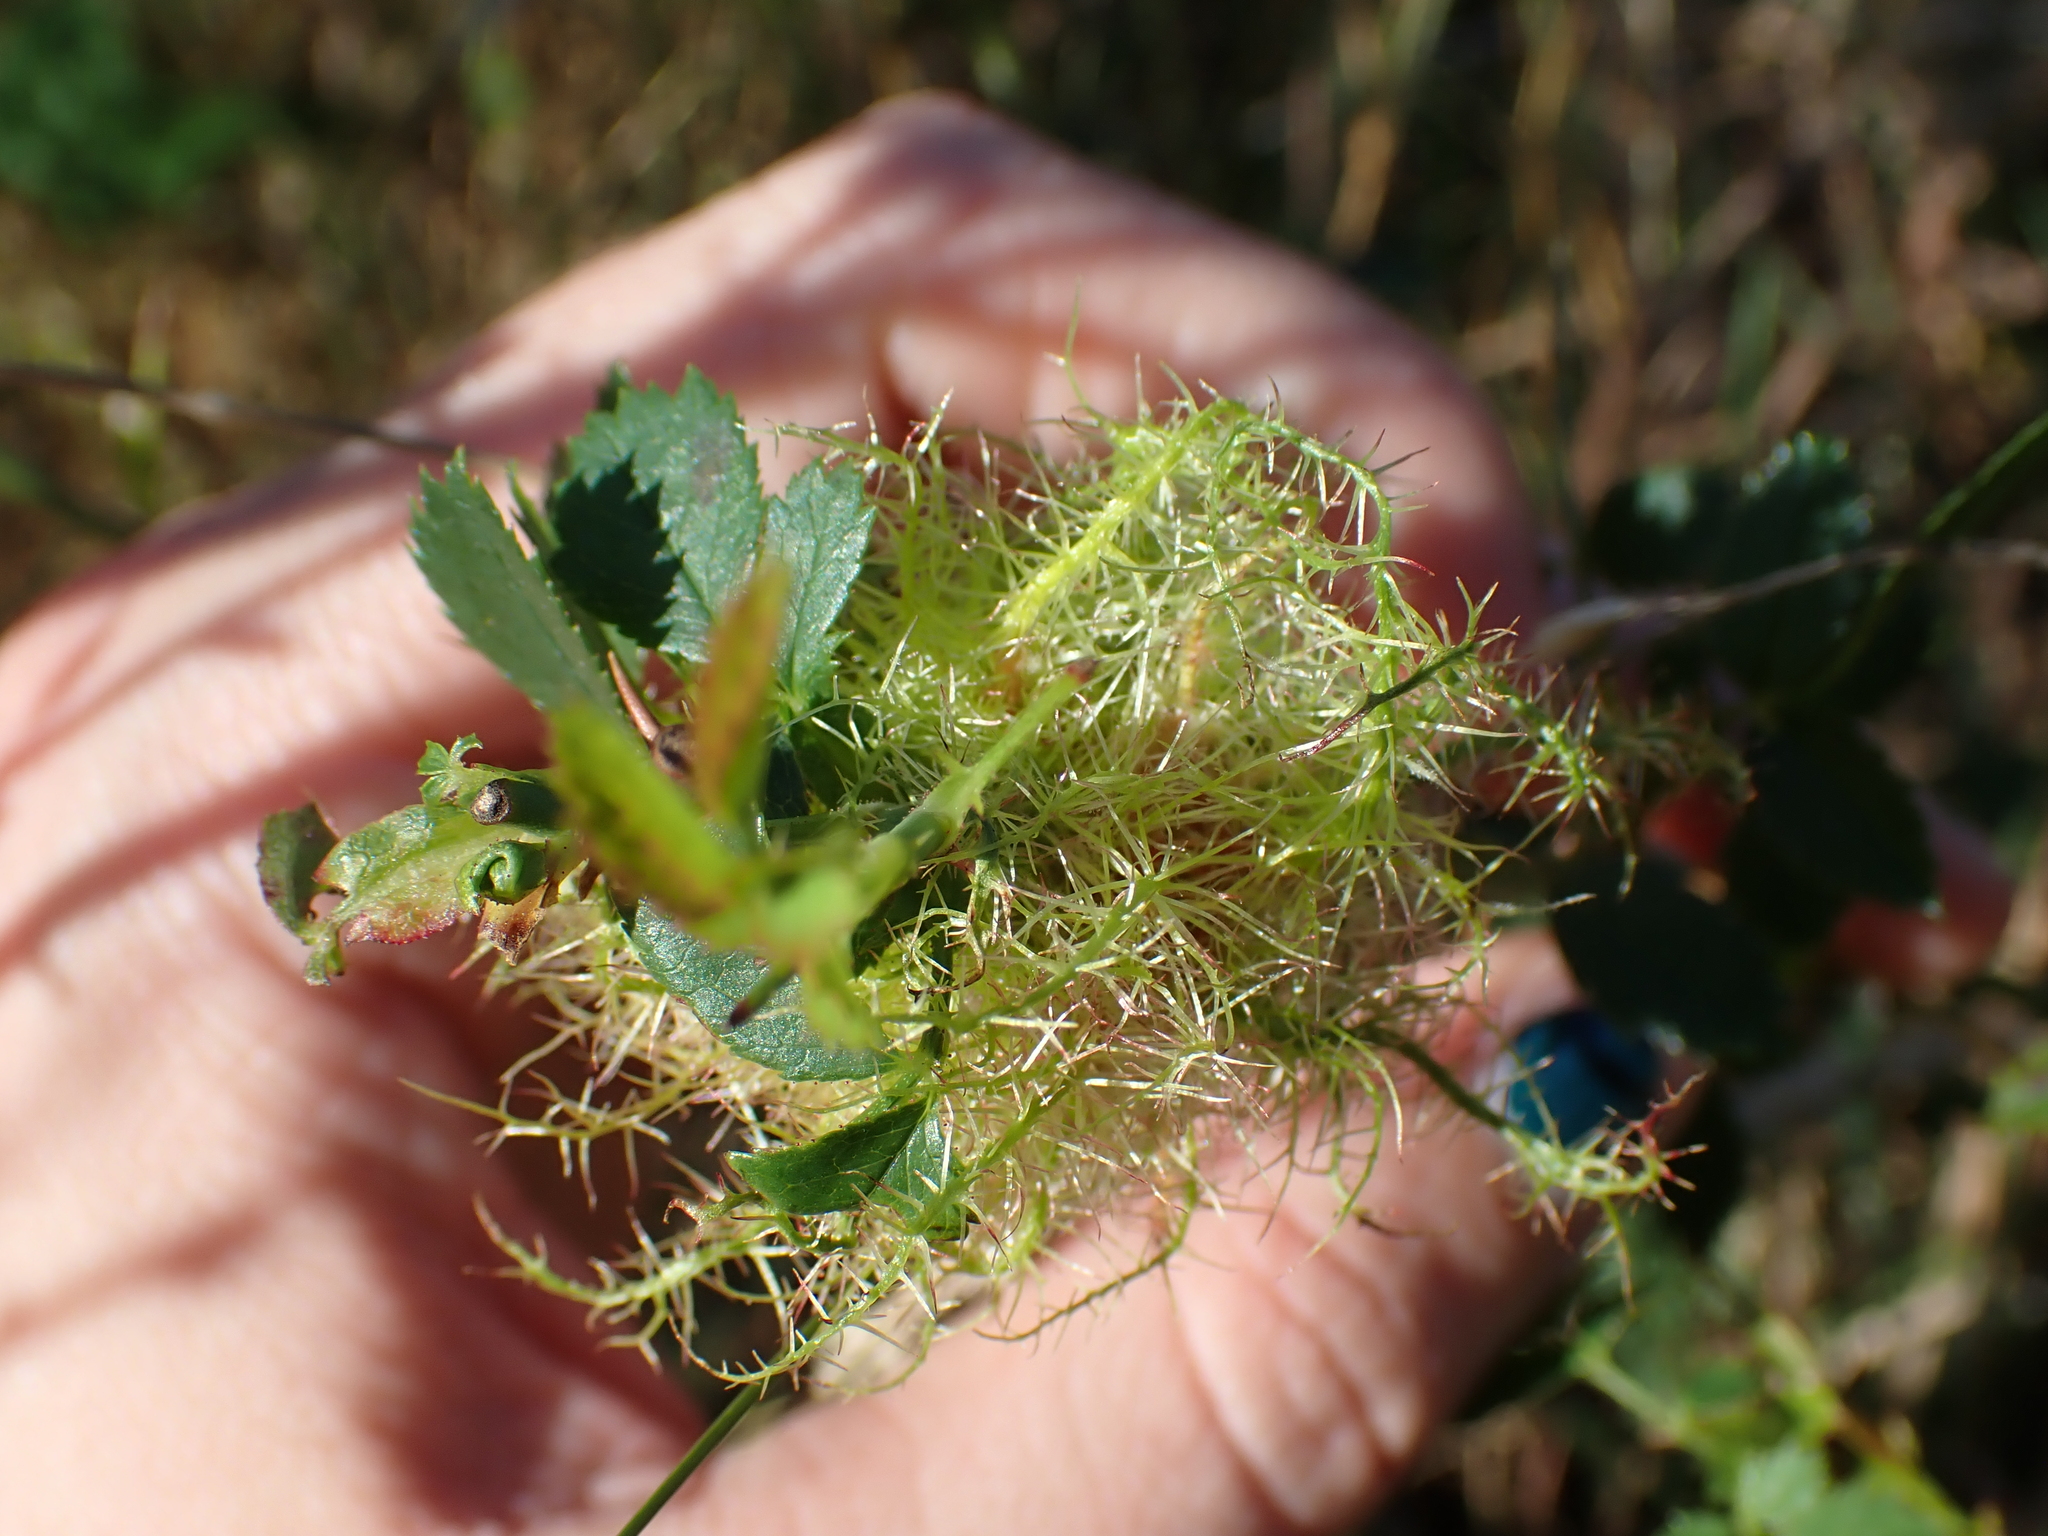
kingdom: Animalia
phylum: Arthropoda
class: Insecta
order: Hymenoptera
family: Cynipidae
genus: Diplolepis
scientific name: Diplolepis rosae
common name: Bedeguar gall
